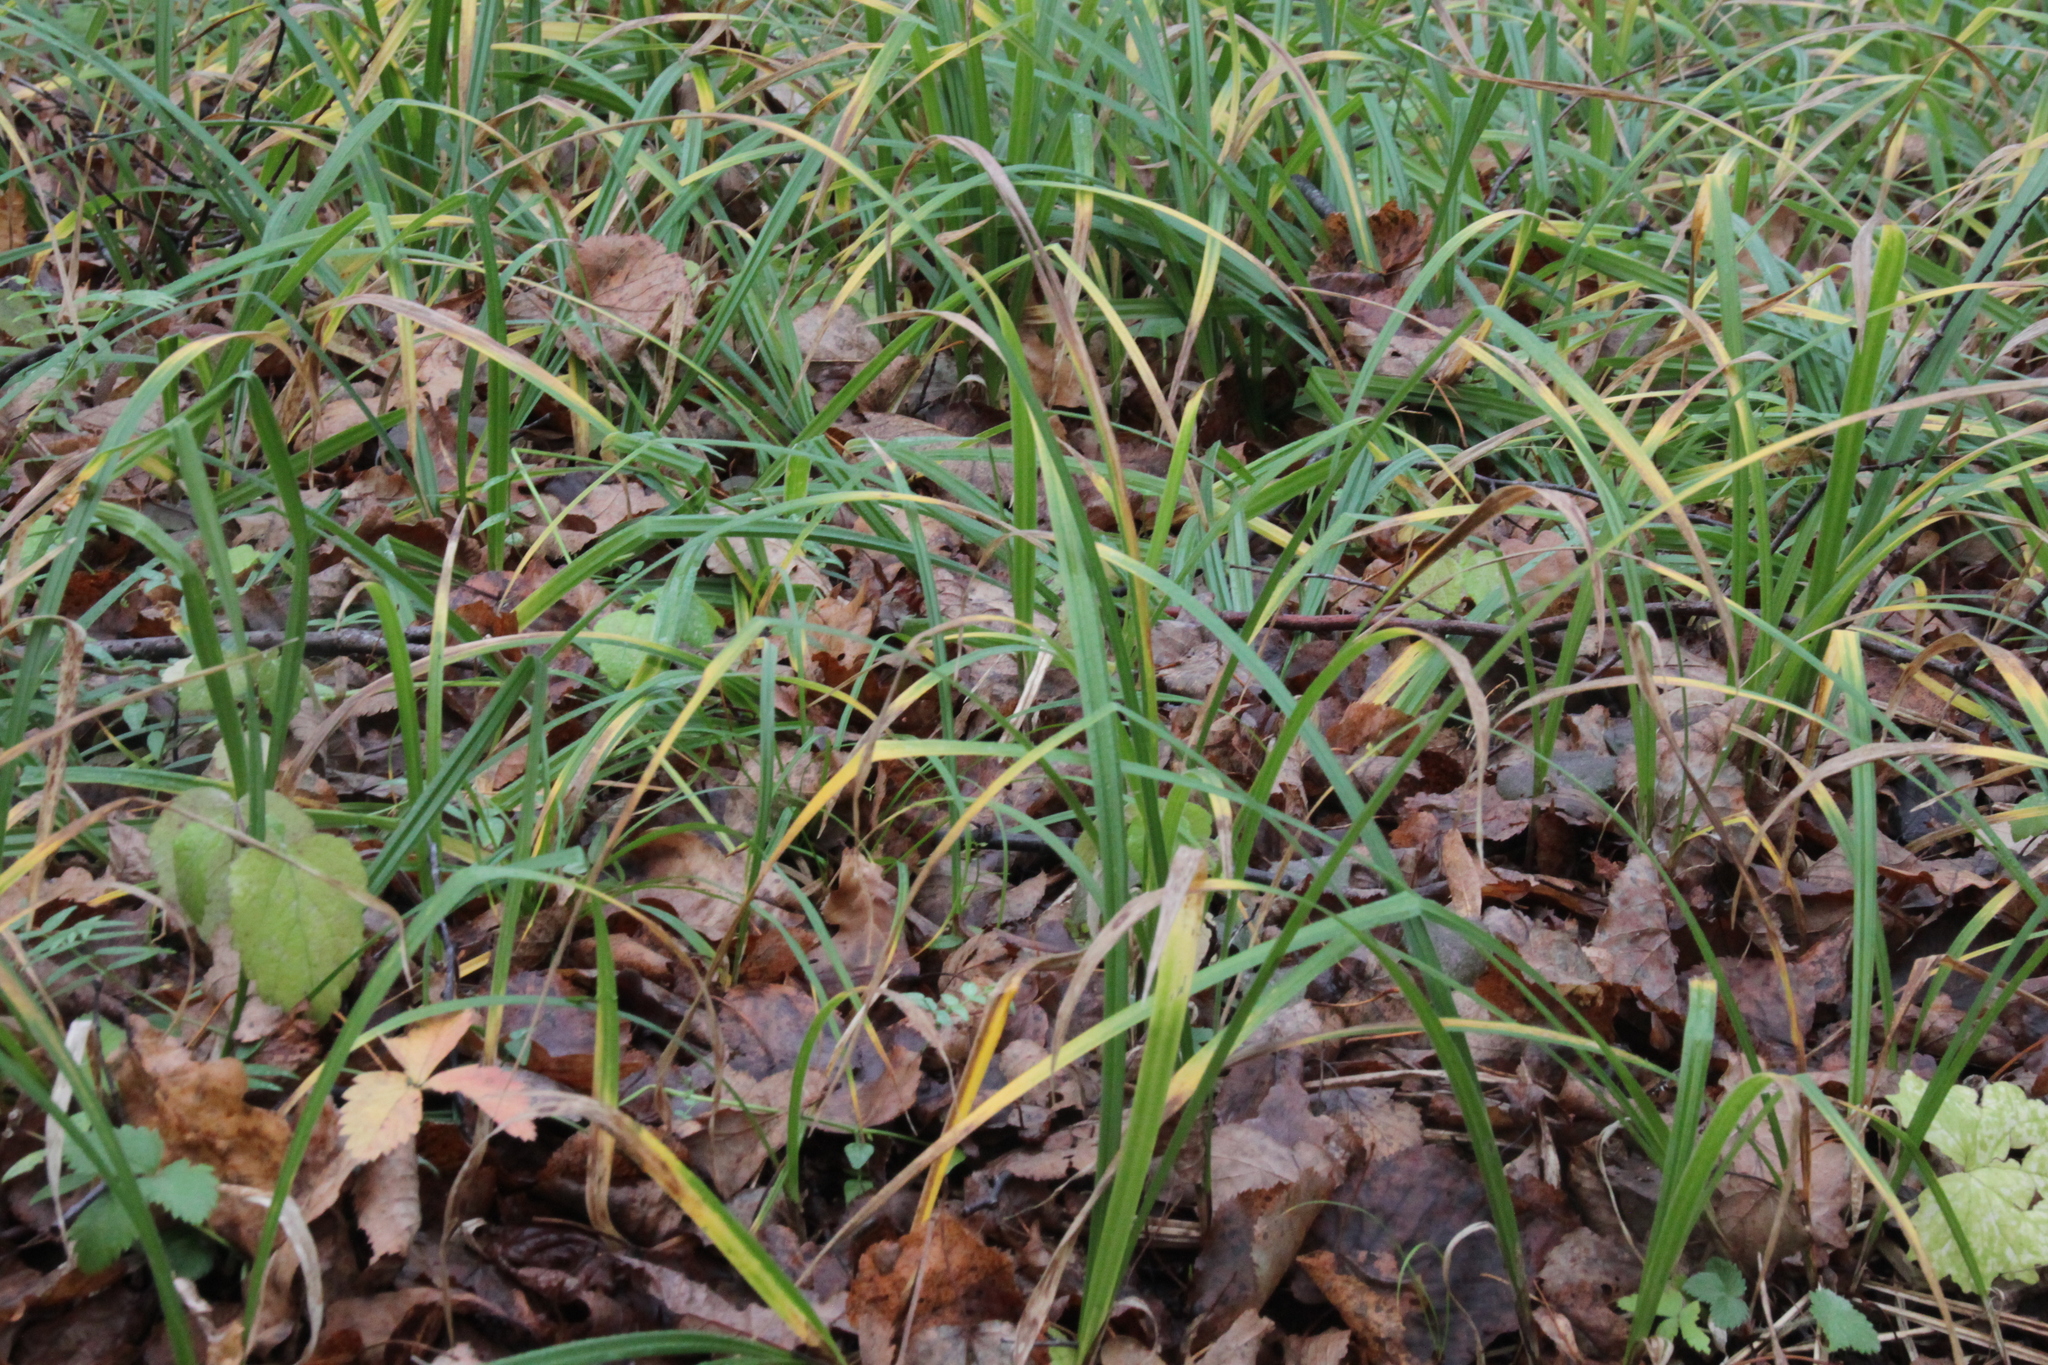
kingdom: Plantae
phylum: Tracheophyta
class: Liliopsida
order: Poales
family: Cyperaceae
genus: Carex
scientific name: Carex pilosa
